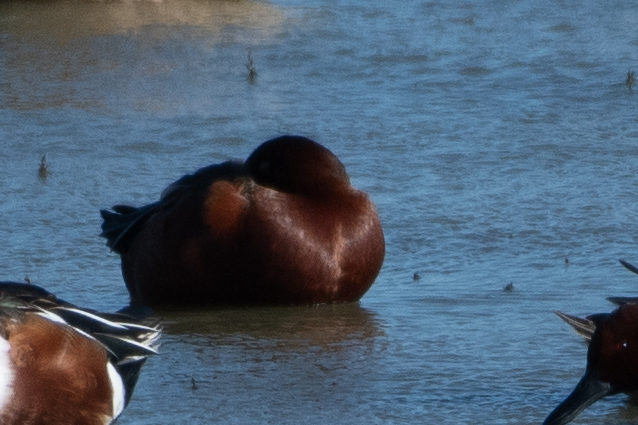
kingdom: Animalia
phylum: Chordata
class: Aves
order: Anseriformes
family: Anatidae
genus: Spatula
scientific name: Spatula cyanoptera
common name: Cinnamon teal
